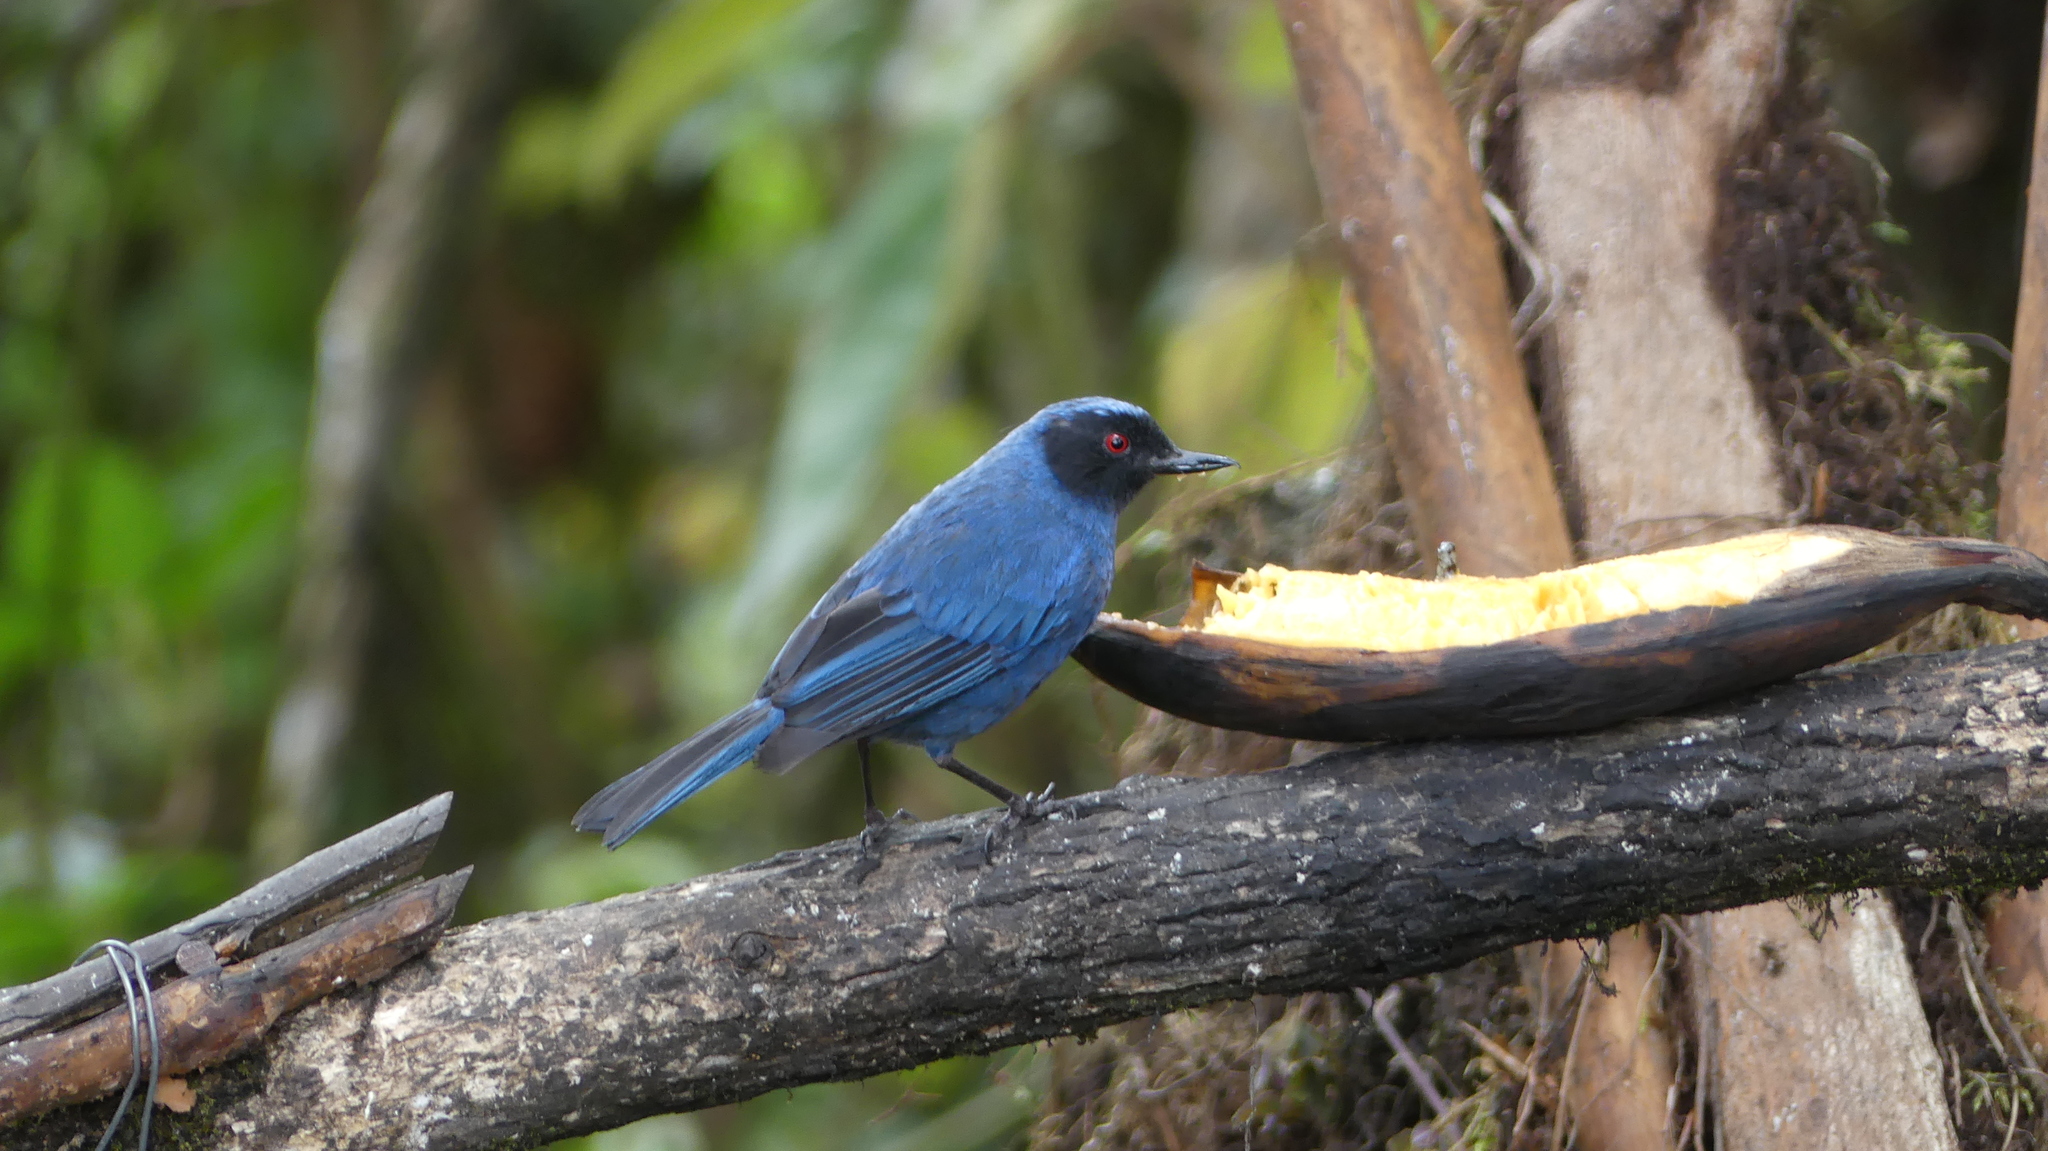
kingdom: Animalia
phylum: Chordata
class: Aves
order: Passeriformes
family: Thraupidae
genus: Diglossa
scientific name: Diglossa cyanea
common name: Masked flowerpiercer
